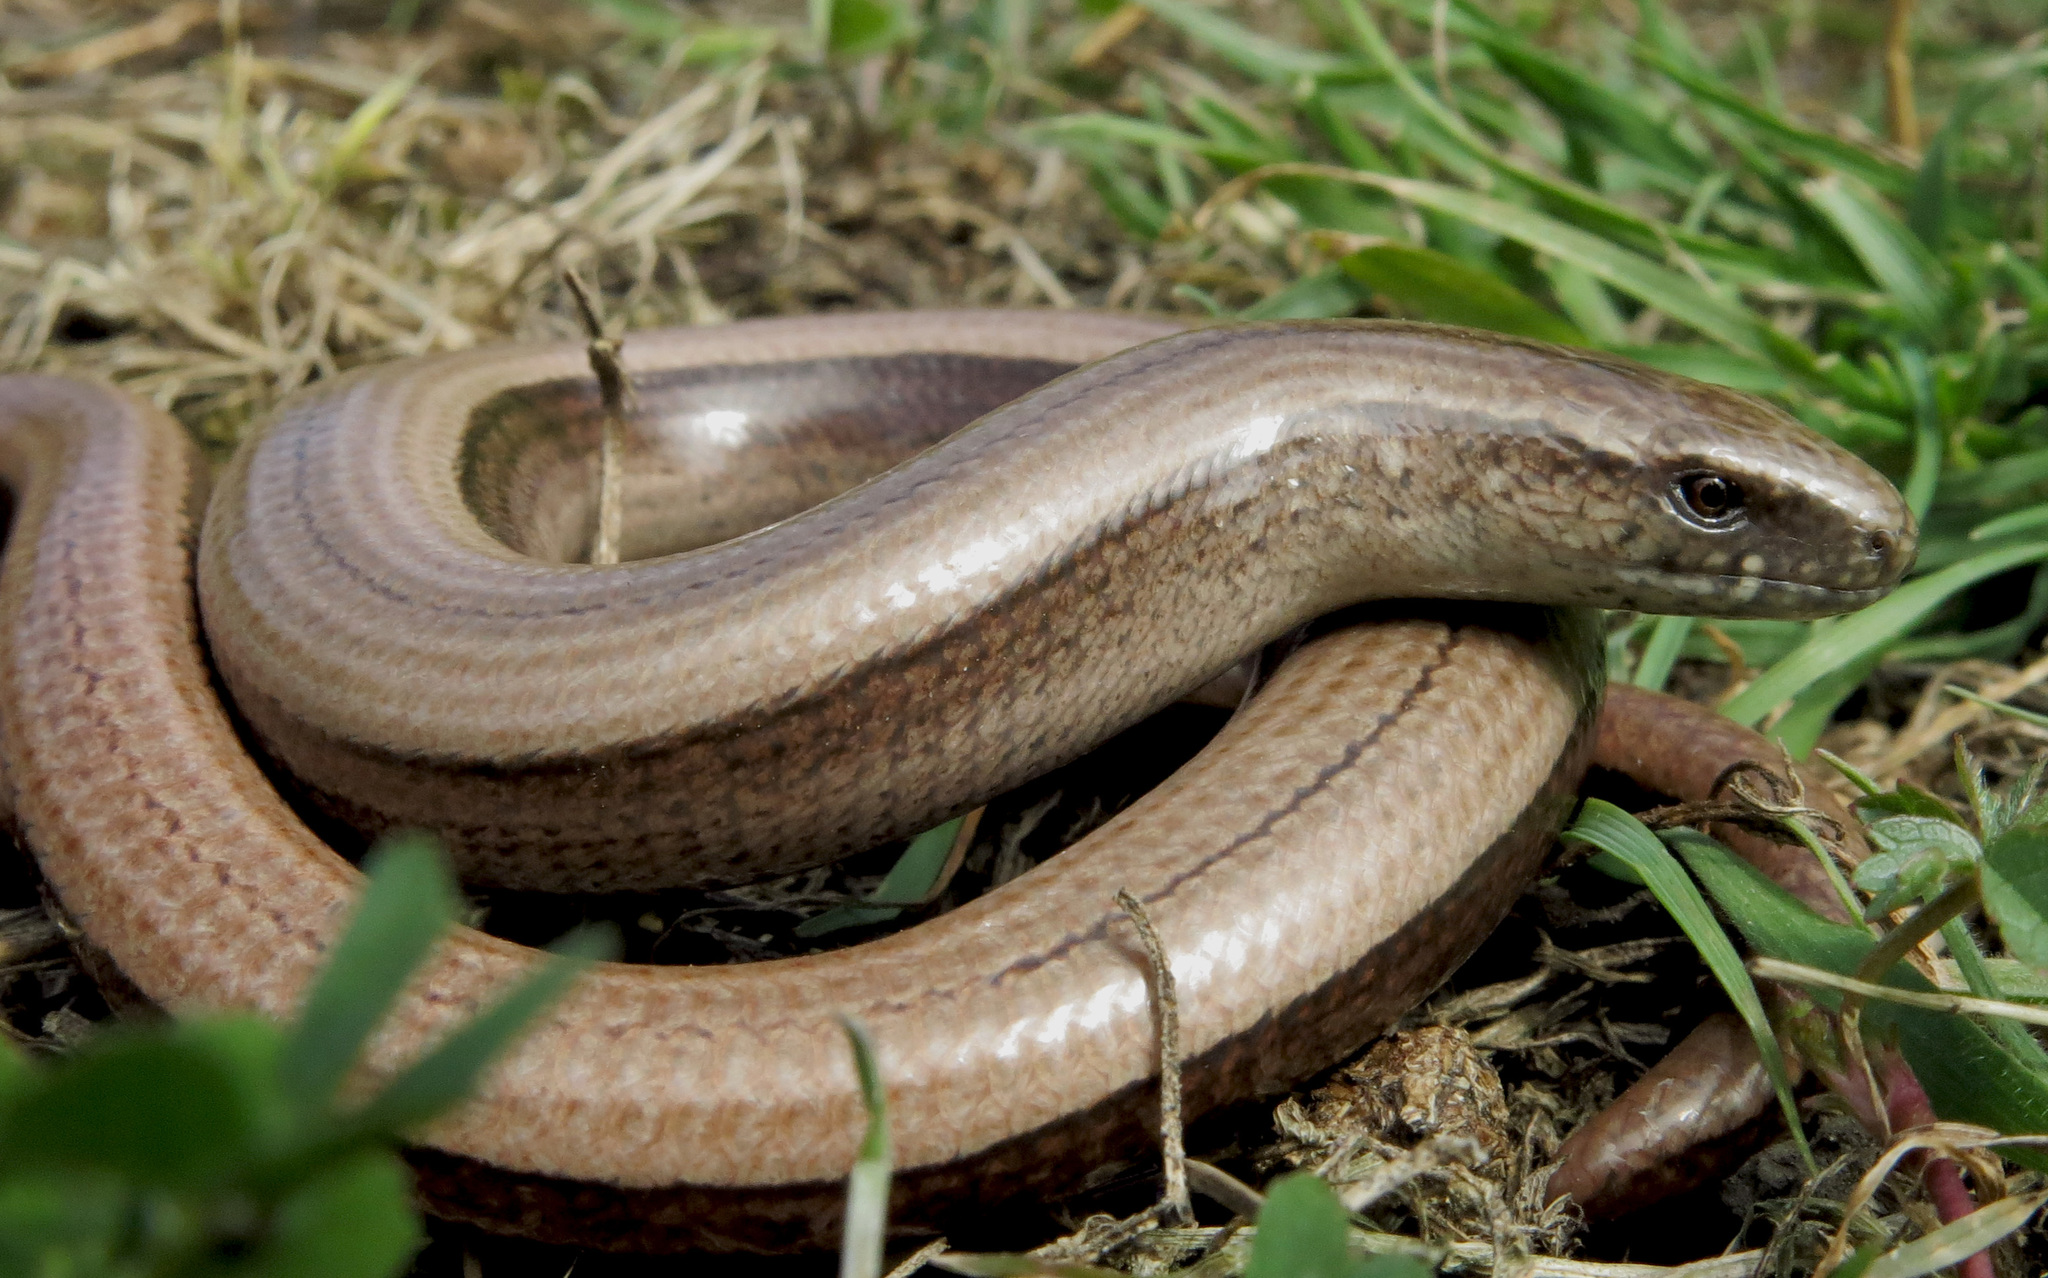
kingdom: Animalia
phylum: Chordata
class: Squamata
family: Anguidae
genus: Anguis
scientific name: Anguis fragilis
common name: Slow worm
